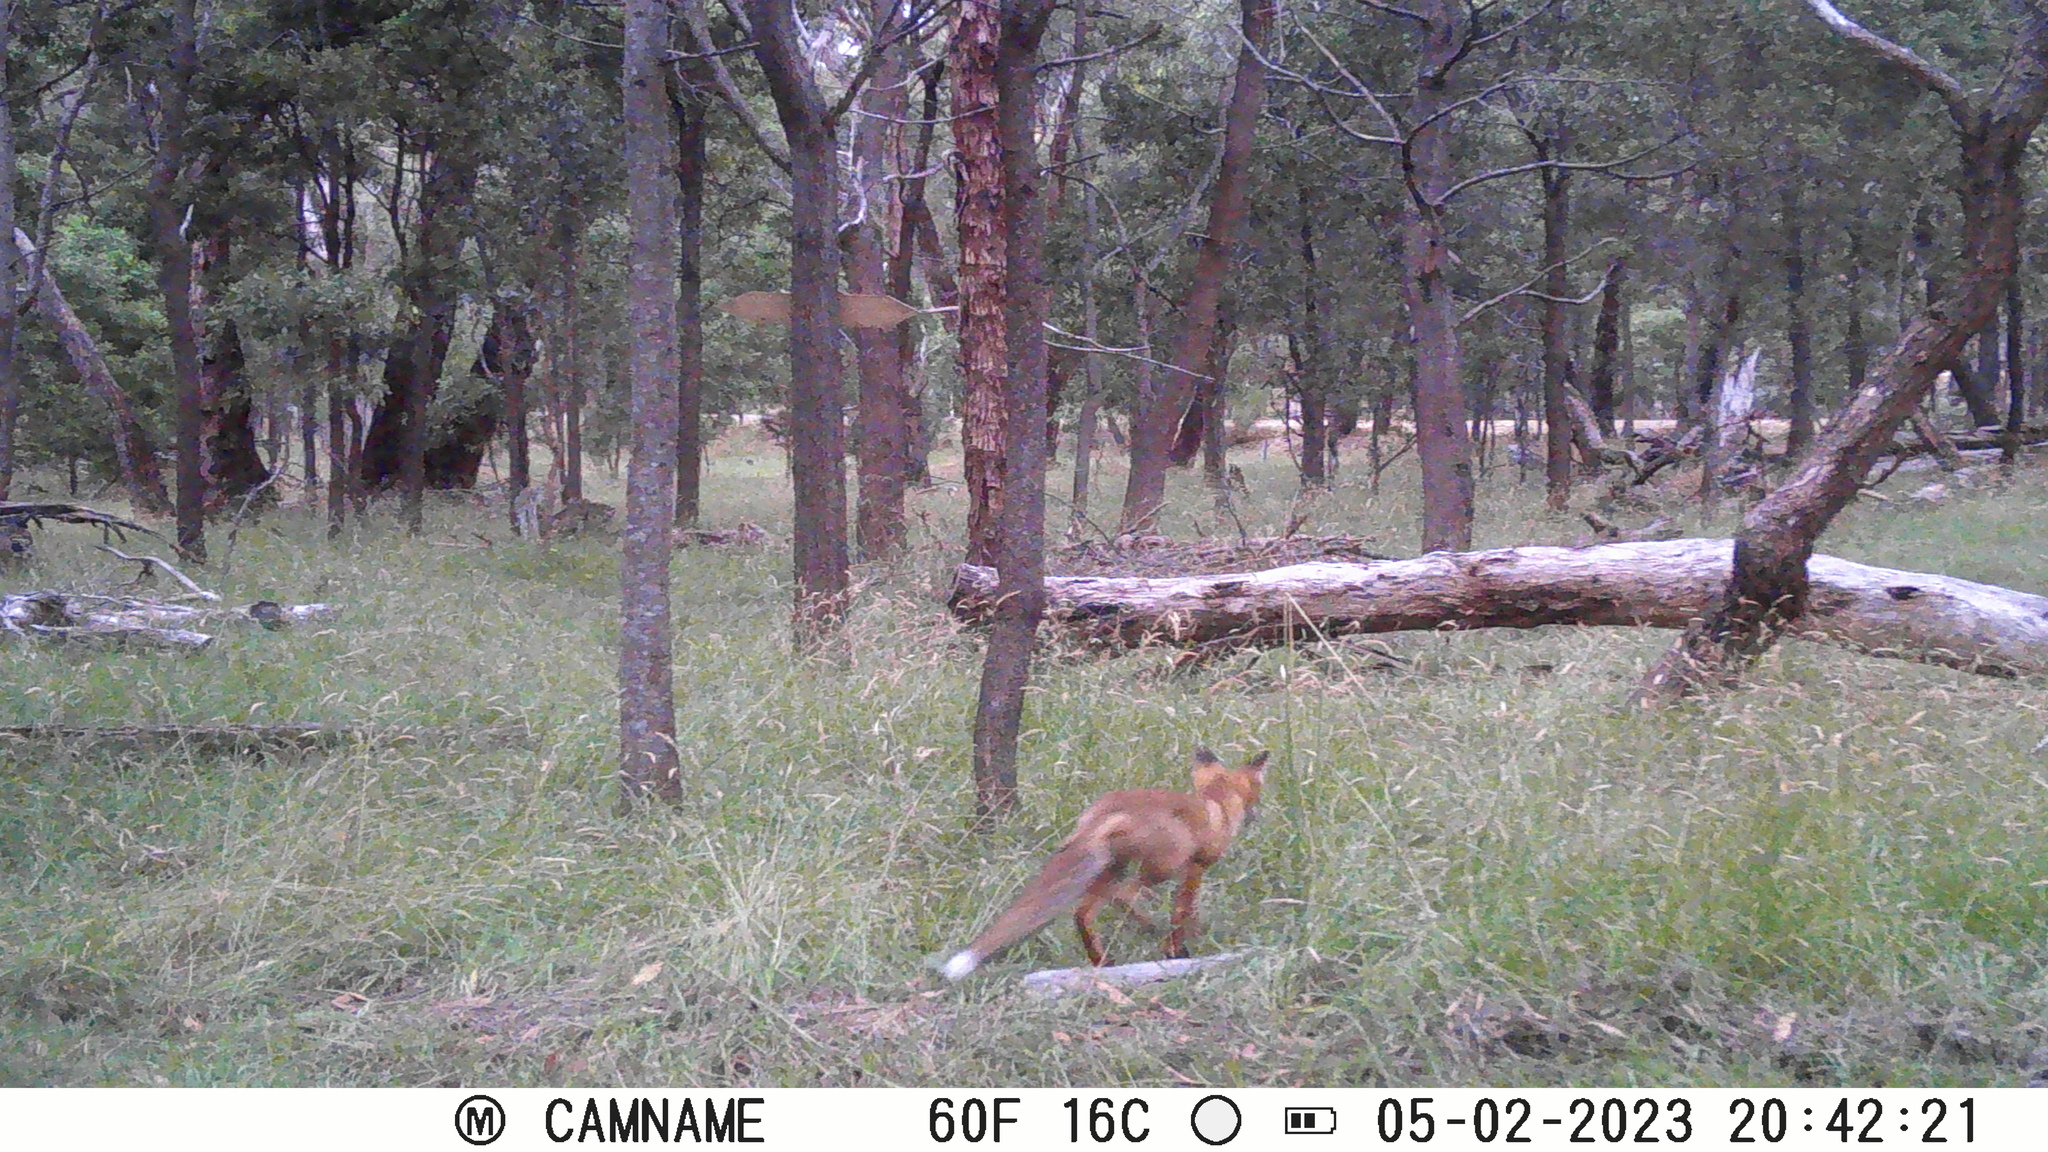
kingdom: Animalia
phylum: Chordata
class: Mammalia
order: Carnivora
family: Canidae
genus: Vulpes
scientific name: Vulpes vulpes
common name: Red fox
